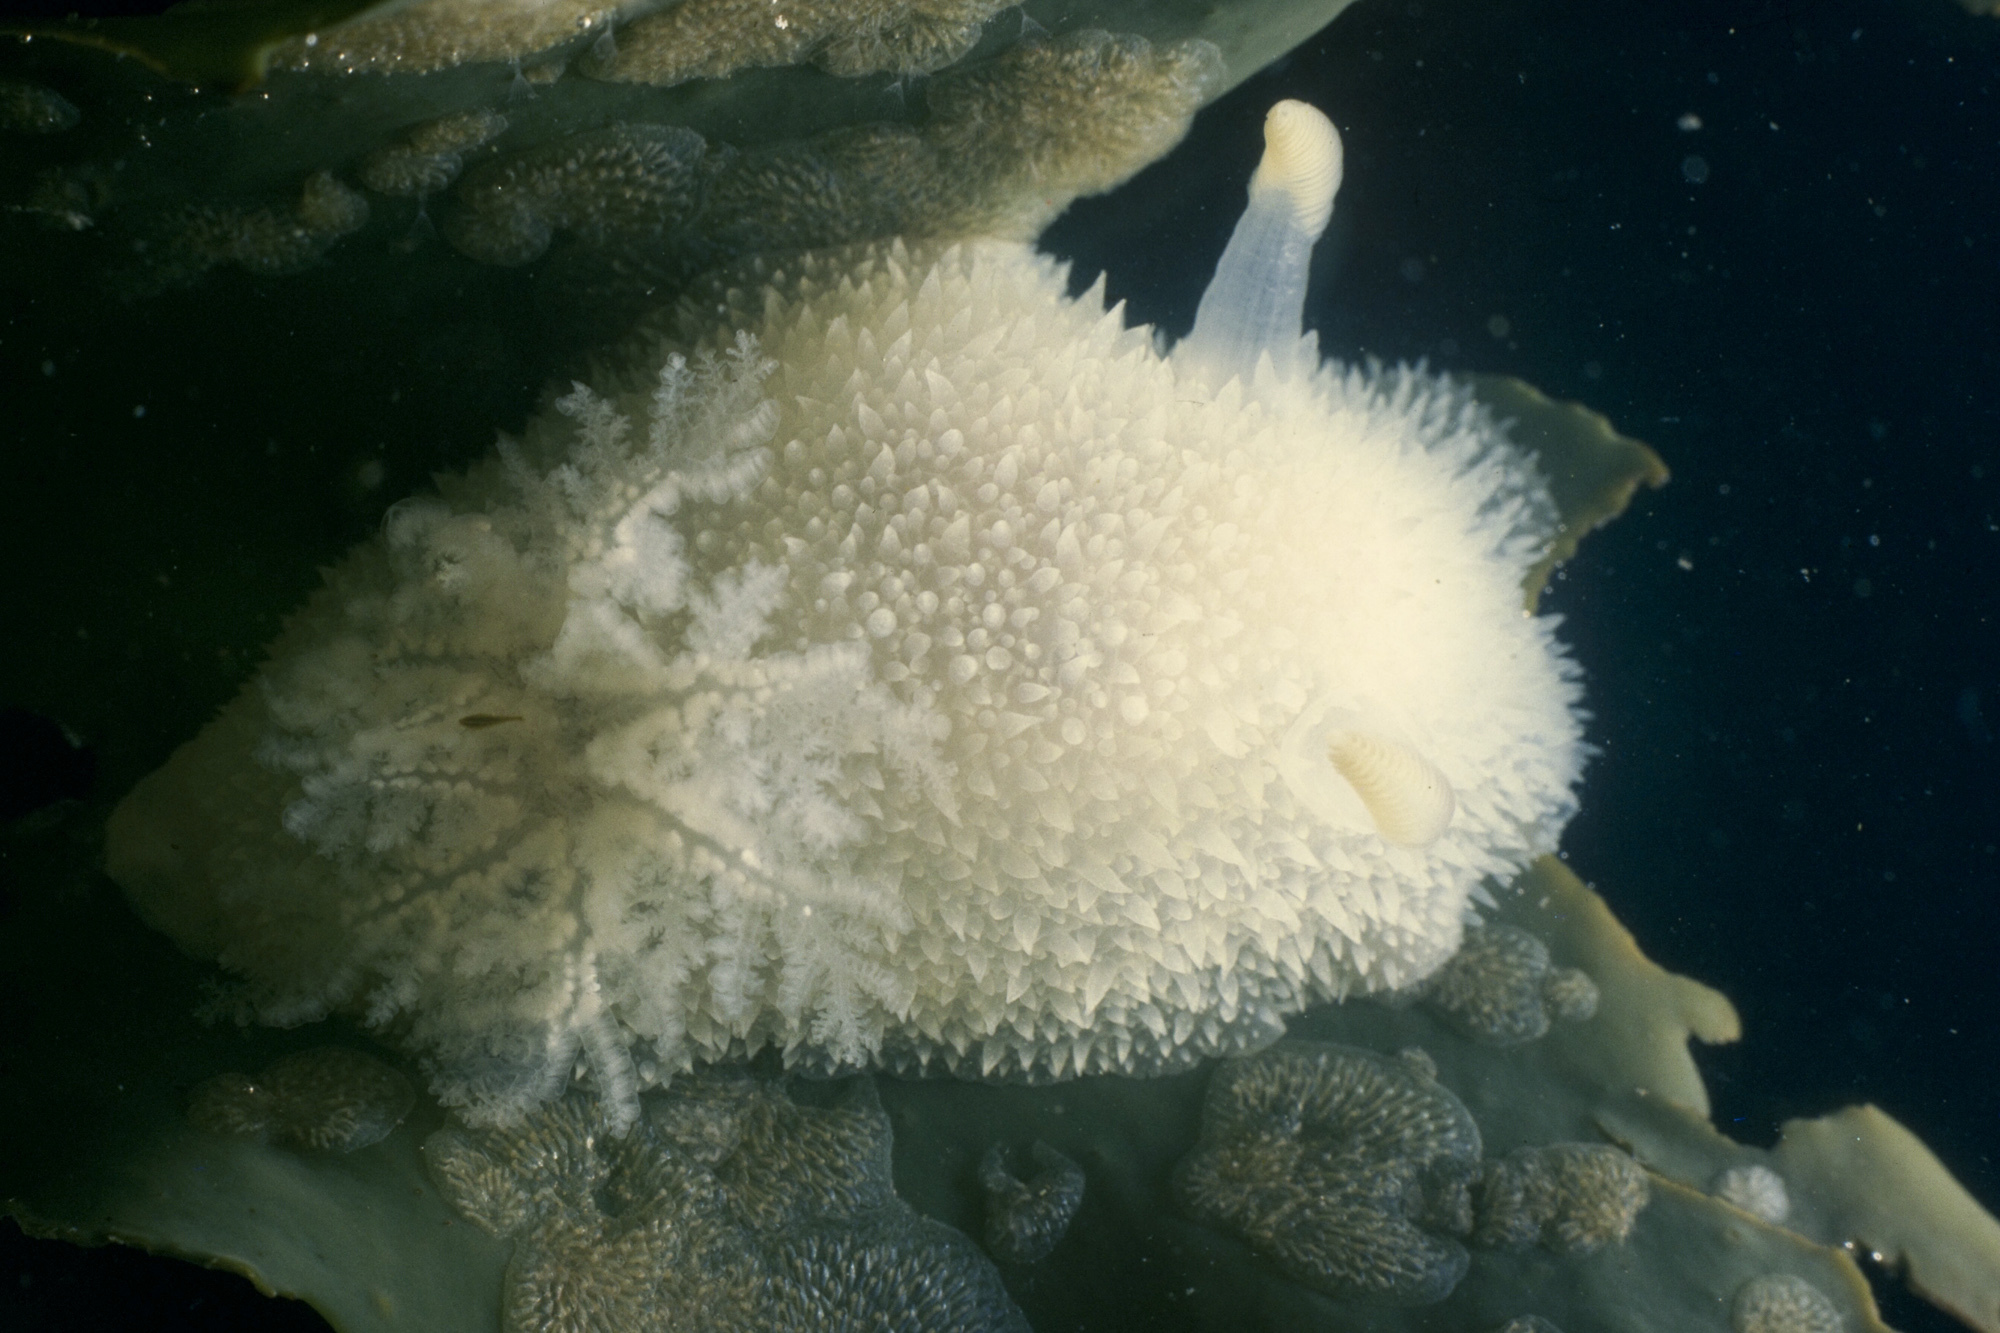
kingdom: Animalia
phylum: Mollusca
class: Gastropoda
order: Nudibranchia
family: Onchidorididae
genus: Acanthodoris
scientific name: Acanthodoris pilosa
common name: Hairy spiny doris
